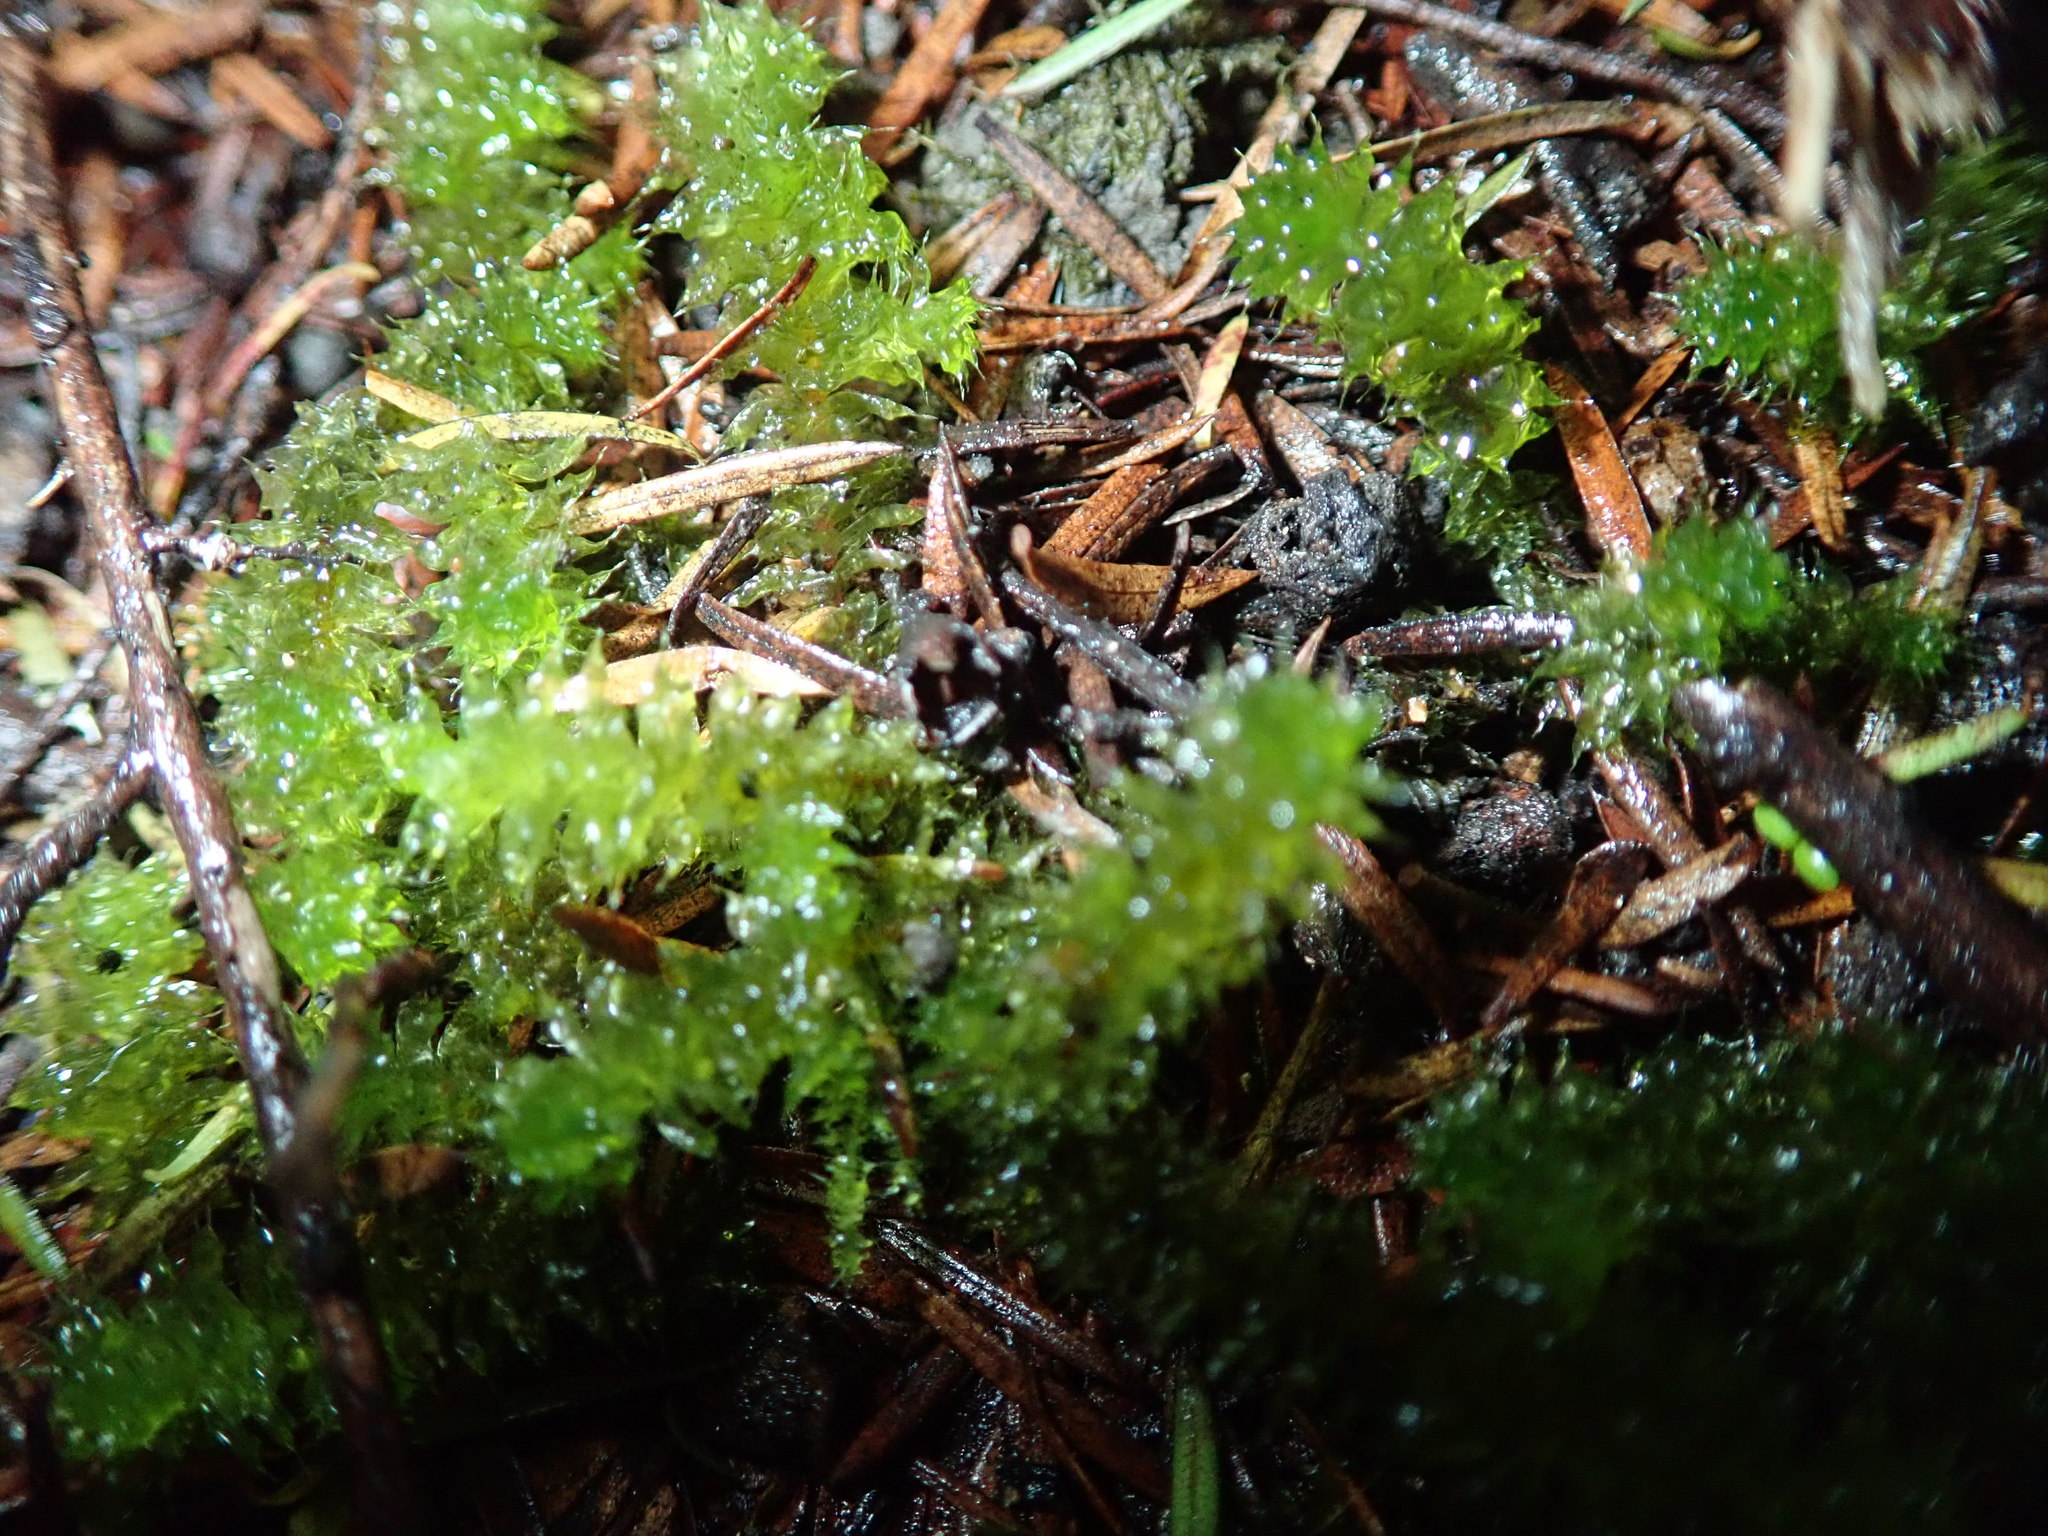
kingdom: Plantae
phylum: Bryophyta
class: Bryopsida
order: Ptychomniales
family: Ptychomniaceae
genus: Ptychomnion
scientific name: Ptychomnion aciculare
